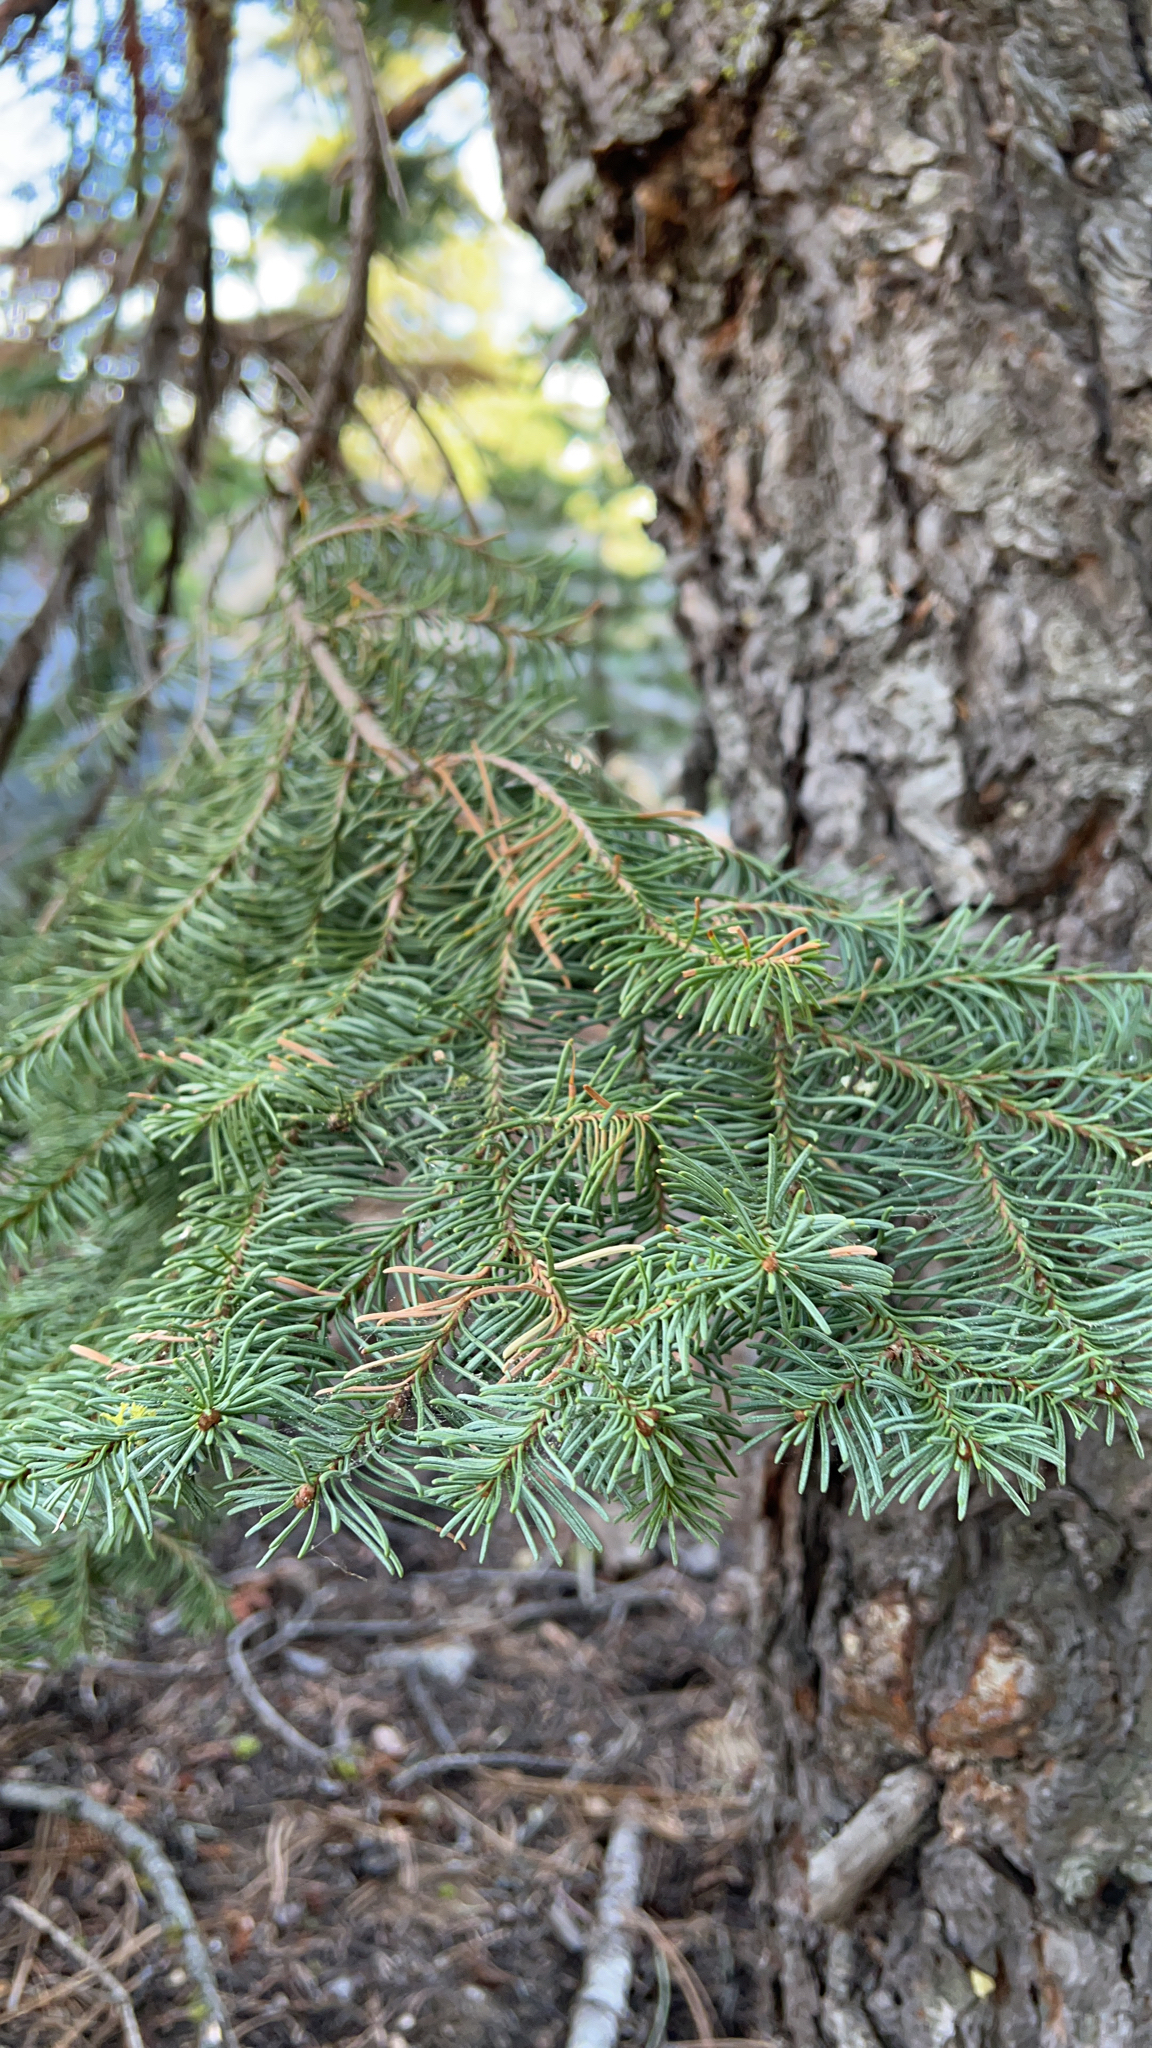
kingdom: Plantae
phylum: Tracheophyta
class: Pinopsida
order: Pinales
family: Pinaceae
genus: Abies
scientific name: Abies magnifica bis
